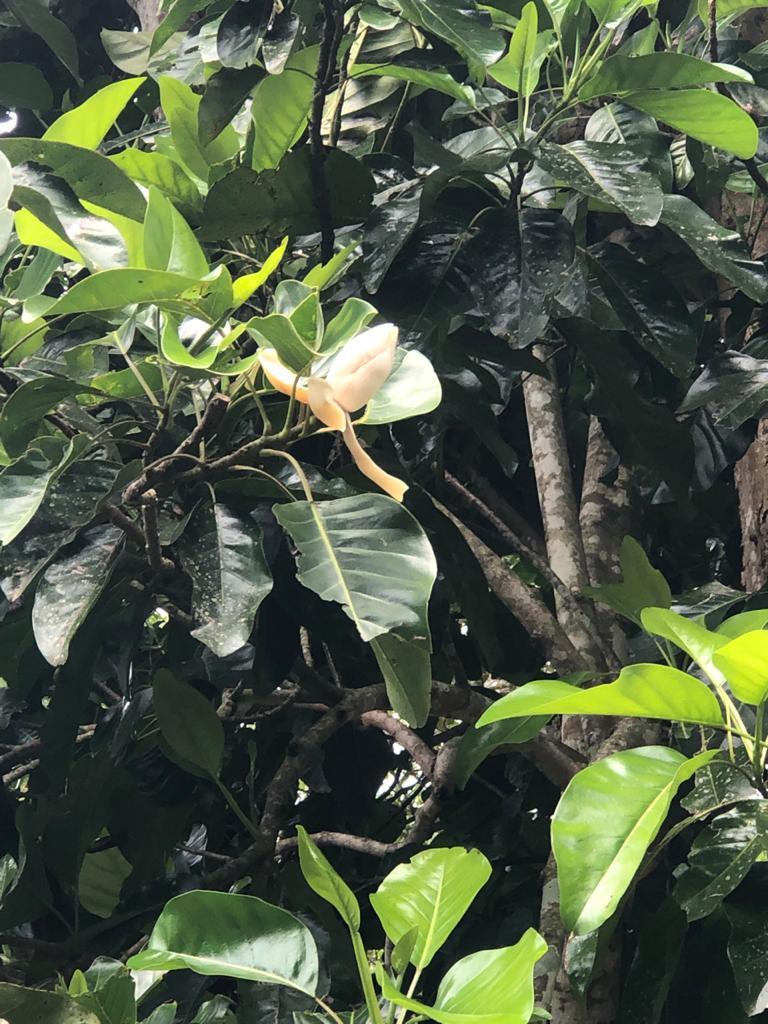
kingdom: Plantae
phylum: Tracheophyta
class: Magnoliopsida
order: Magnoliales
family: Magnoliaceae
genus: Magnolia
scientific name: Magnolia perezfarrerae
